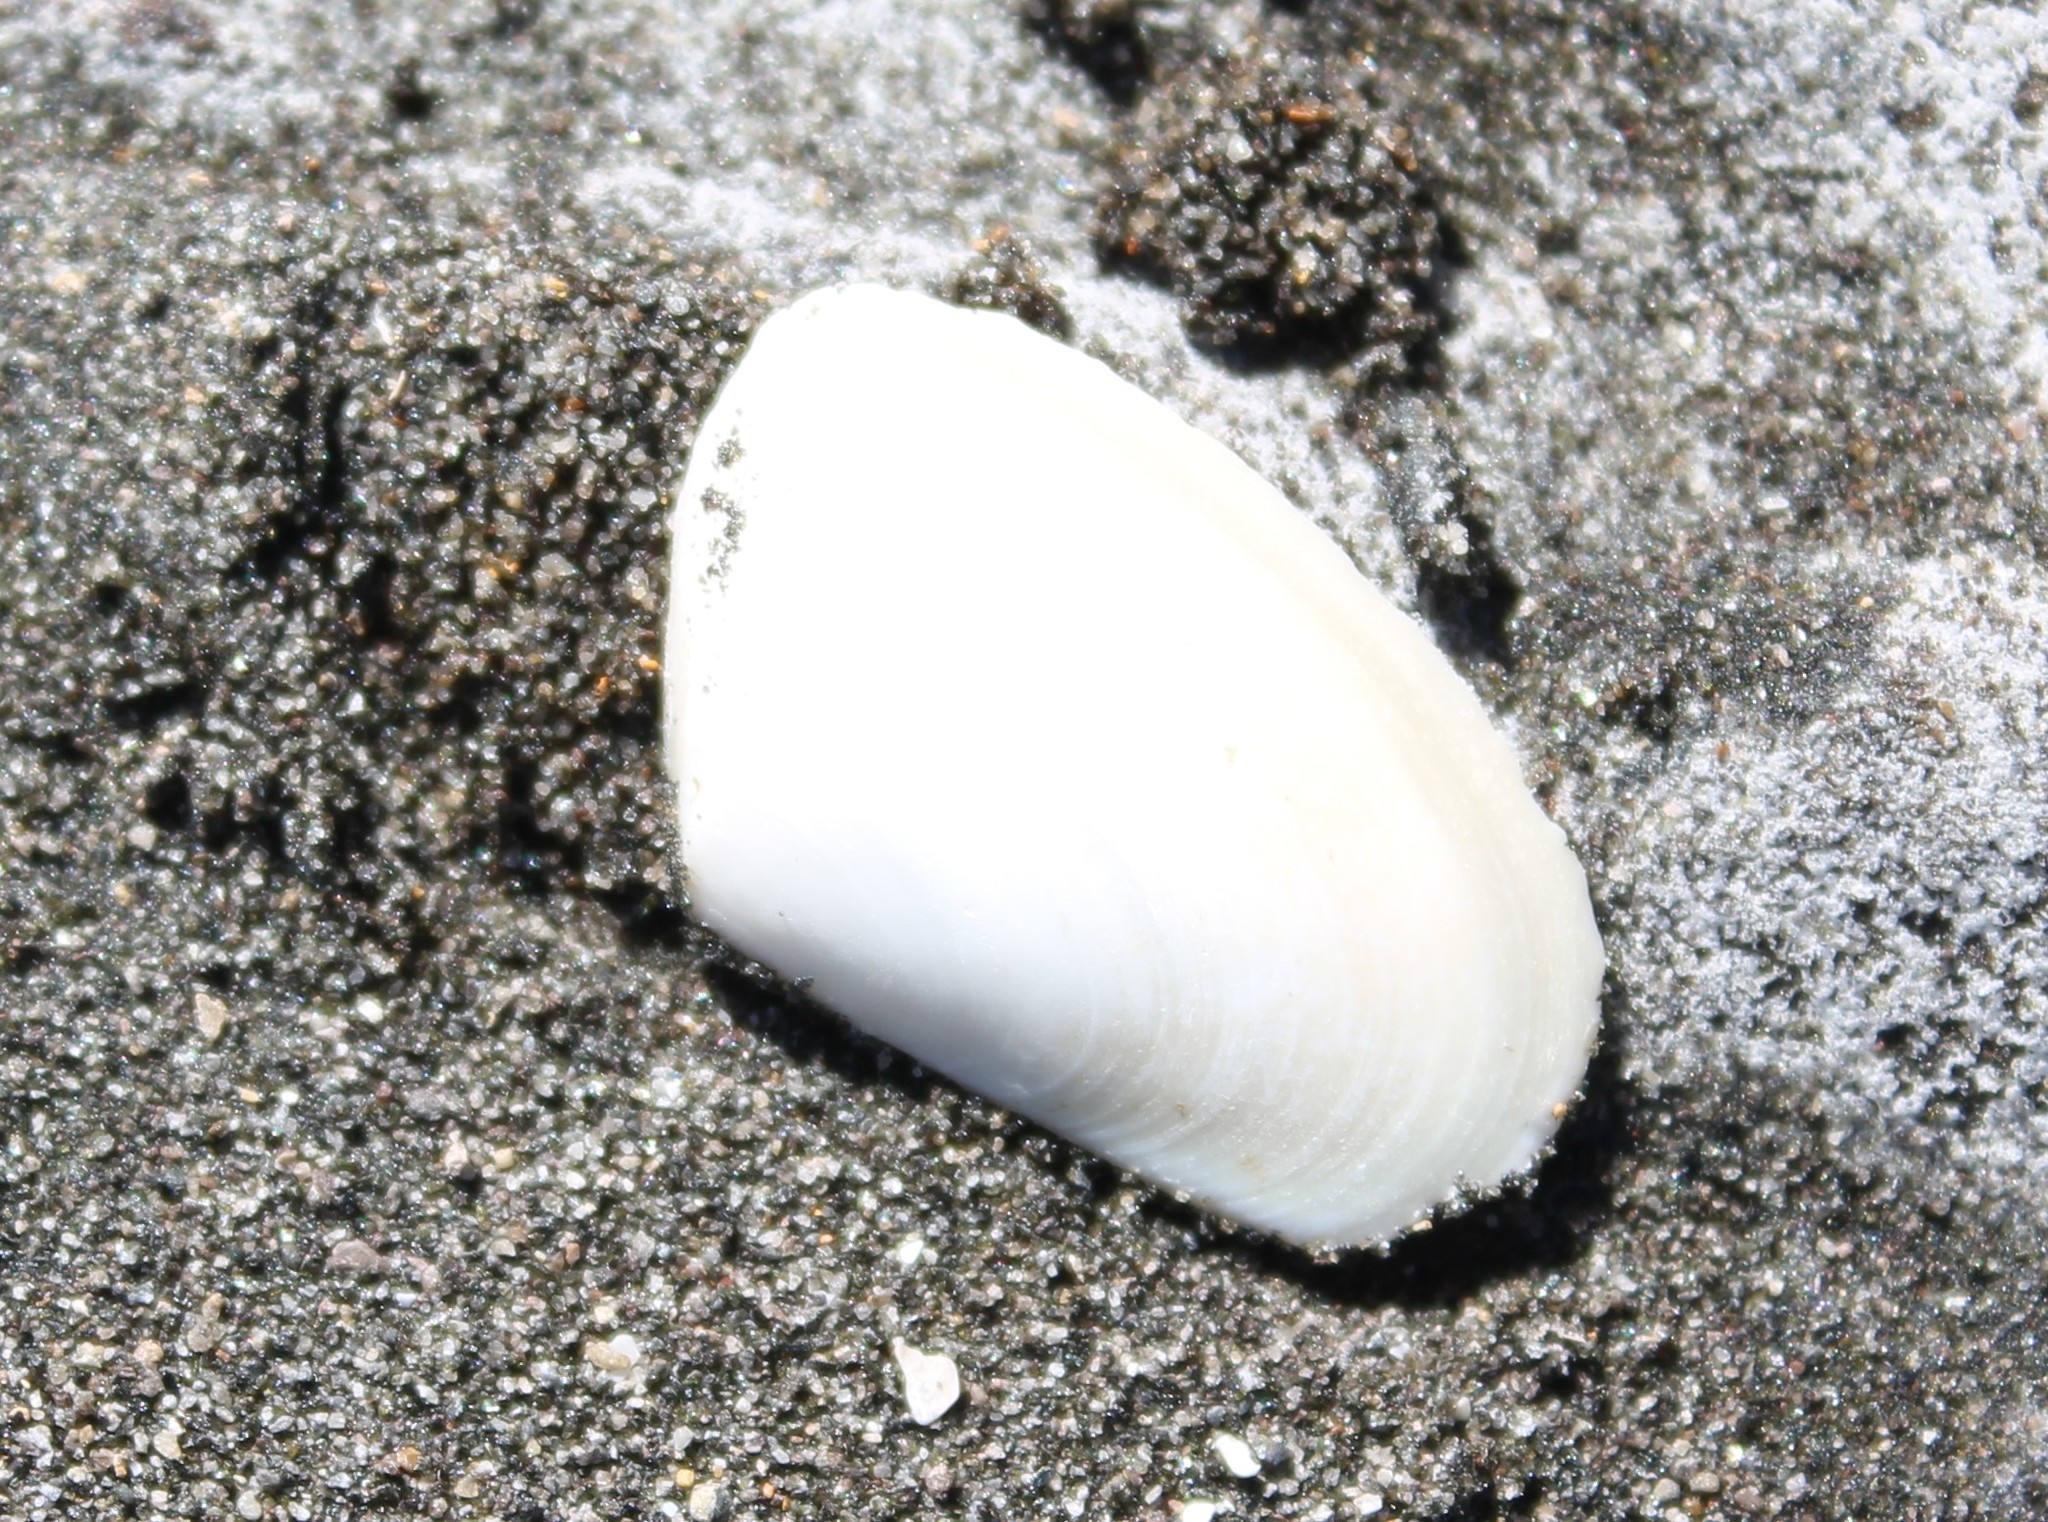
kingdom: Animalia
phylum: Mollusca
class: Bivalvia
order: Venerida
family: Mesodesmatidae
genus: Paphies
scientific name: Paphies subtriangulata
